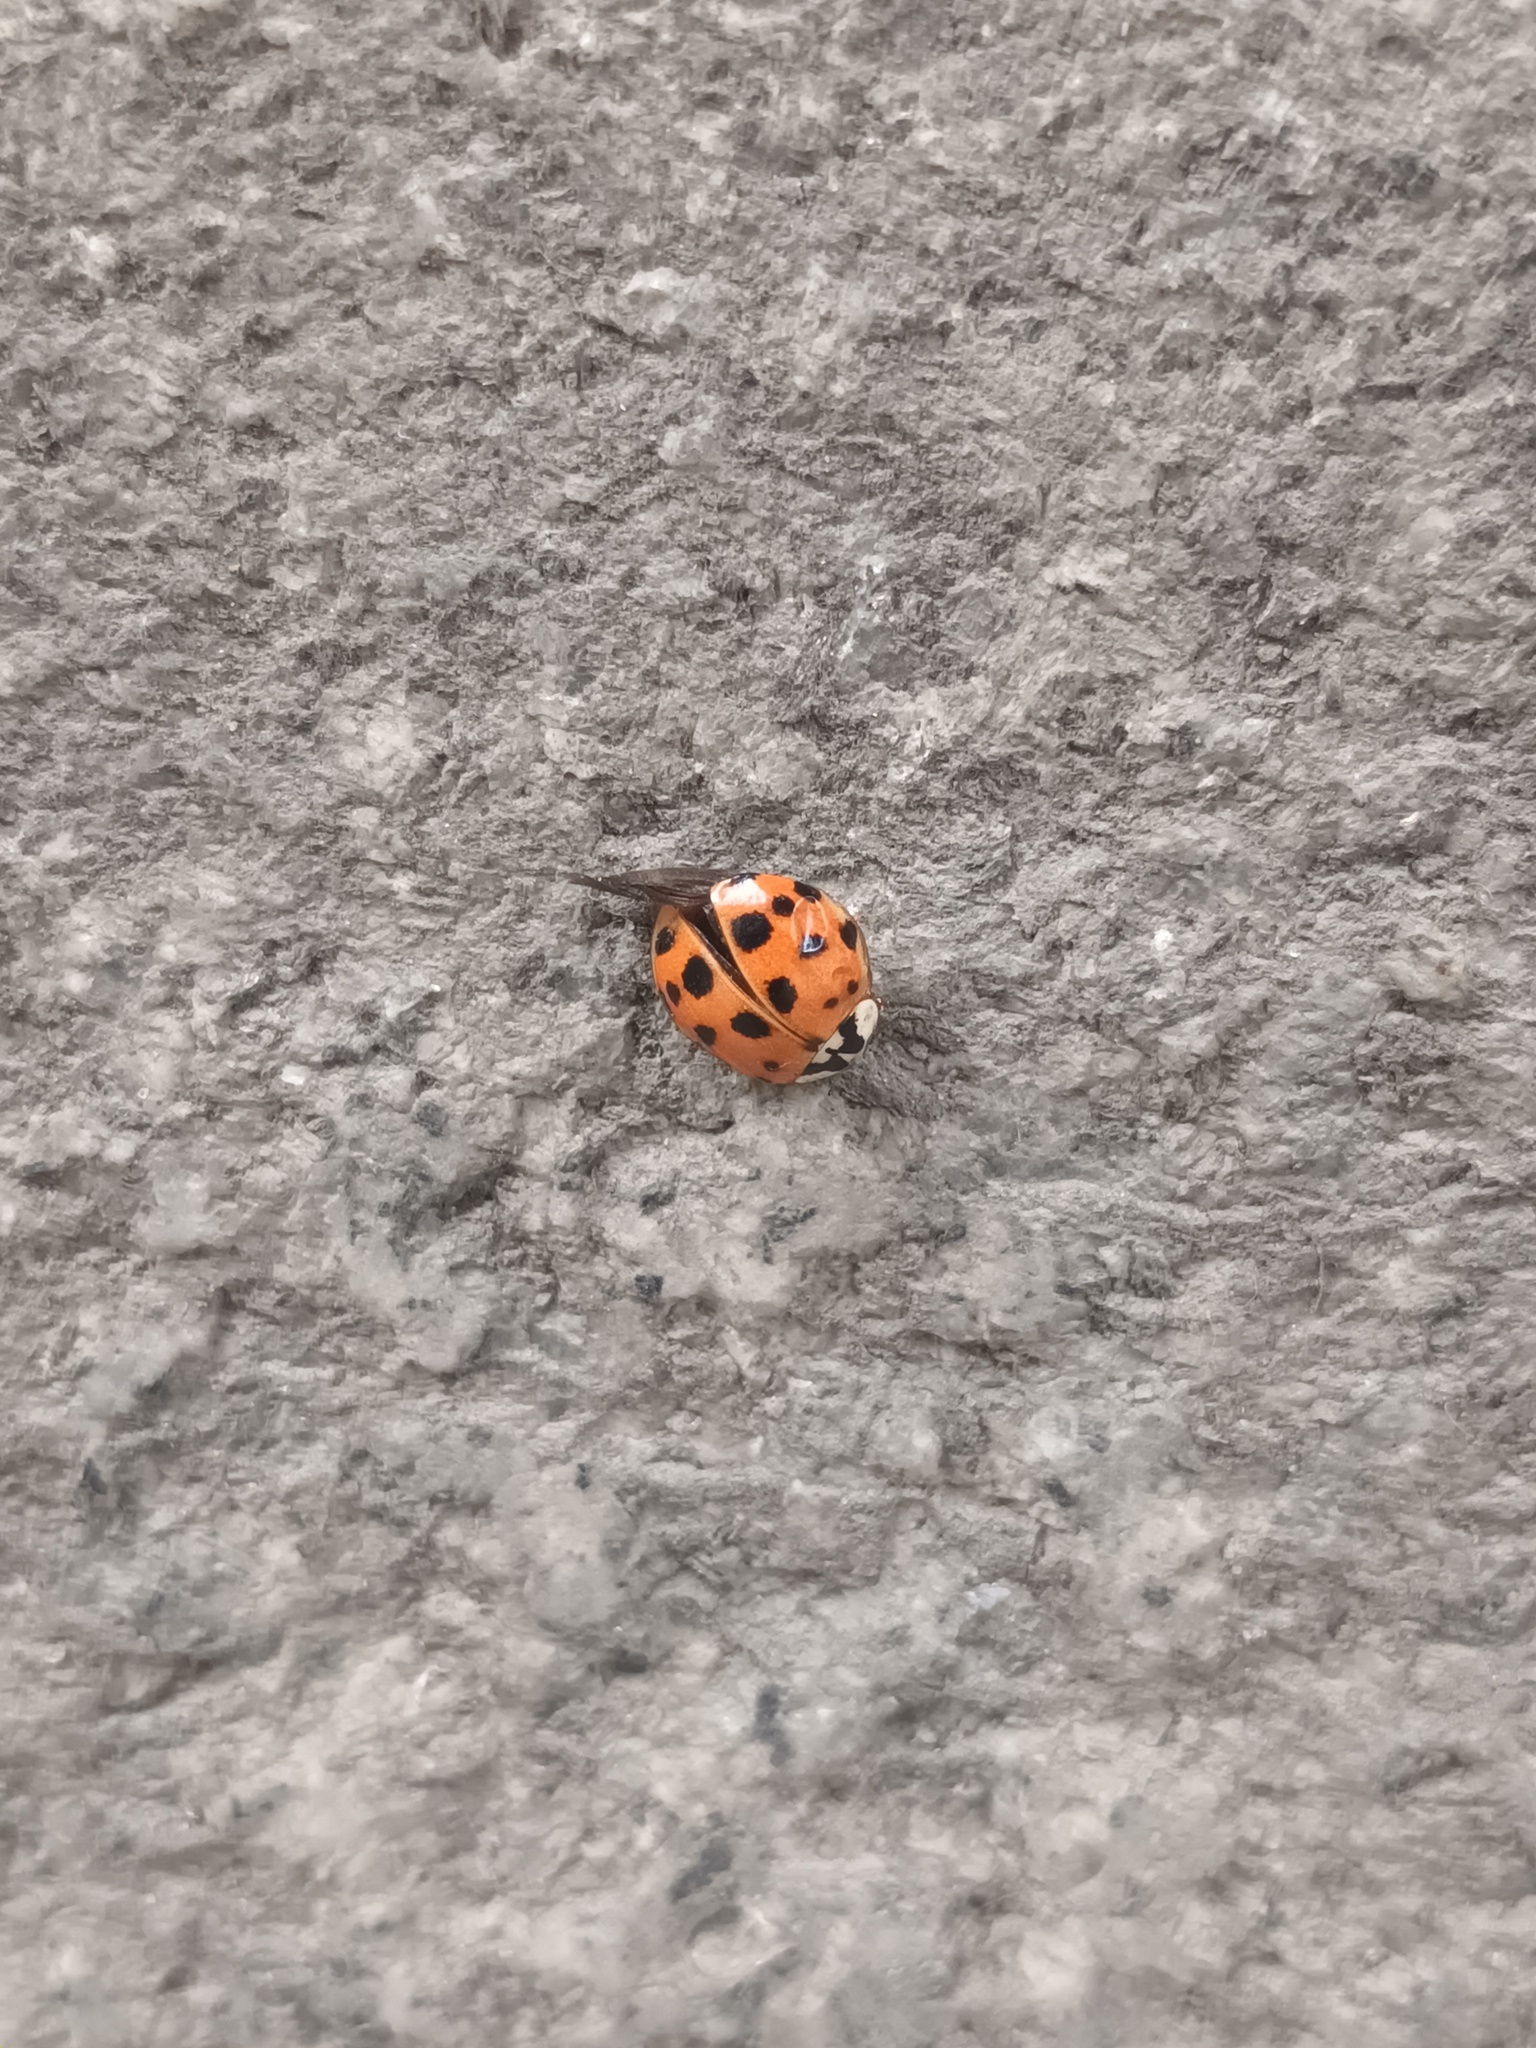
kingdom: Animalia
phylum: Arthropoda
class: Insecta
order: Coleoptera
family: Coccinellidae
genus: Harmonia
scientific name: Harmonia axyridis
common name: Harlequin ladybird
